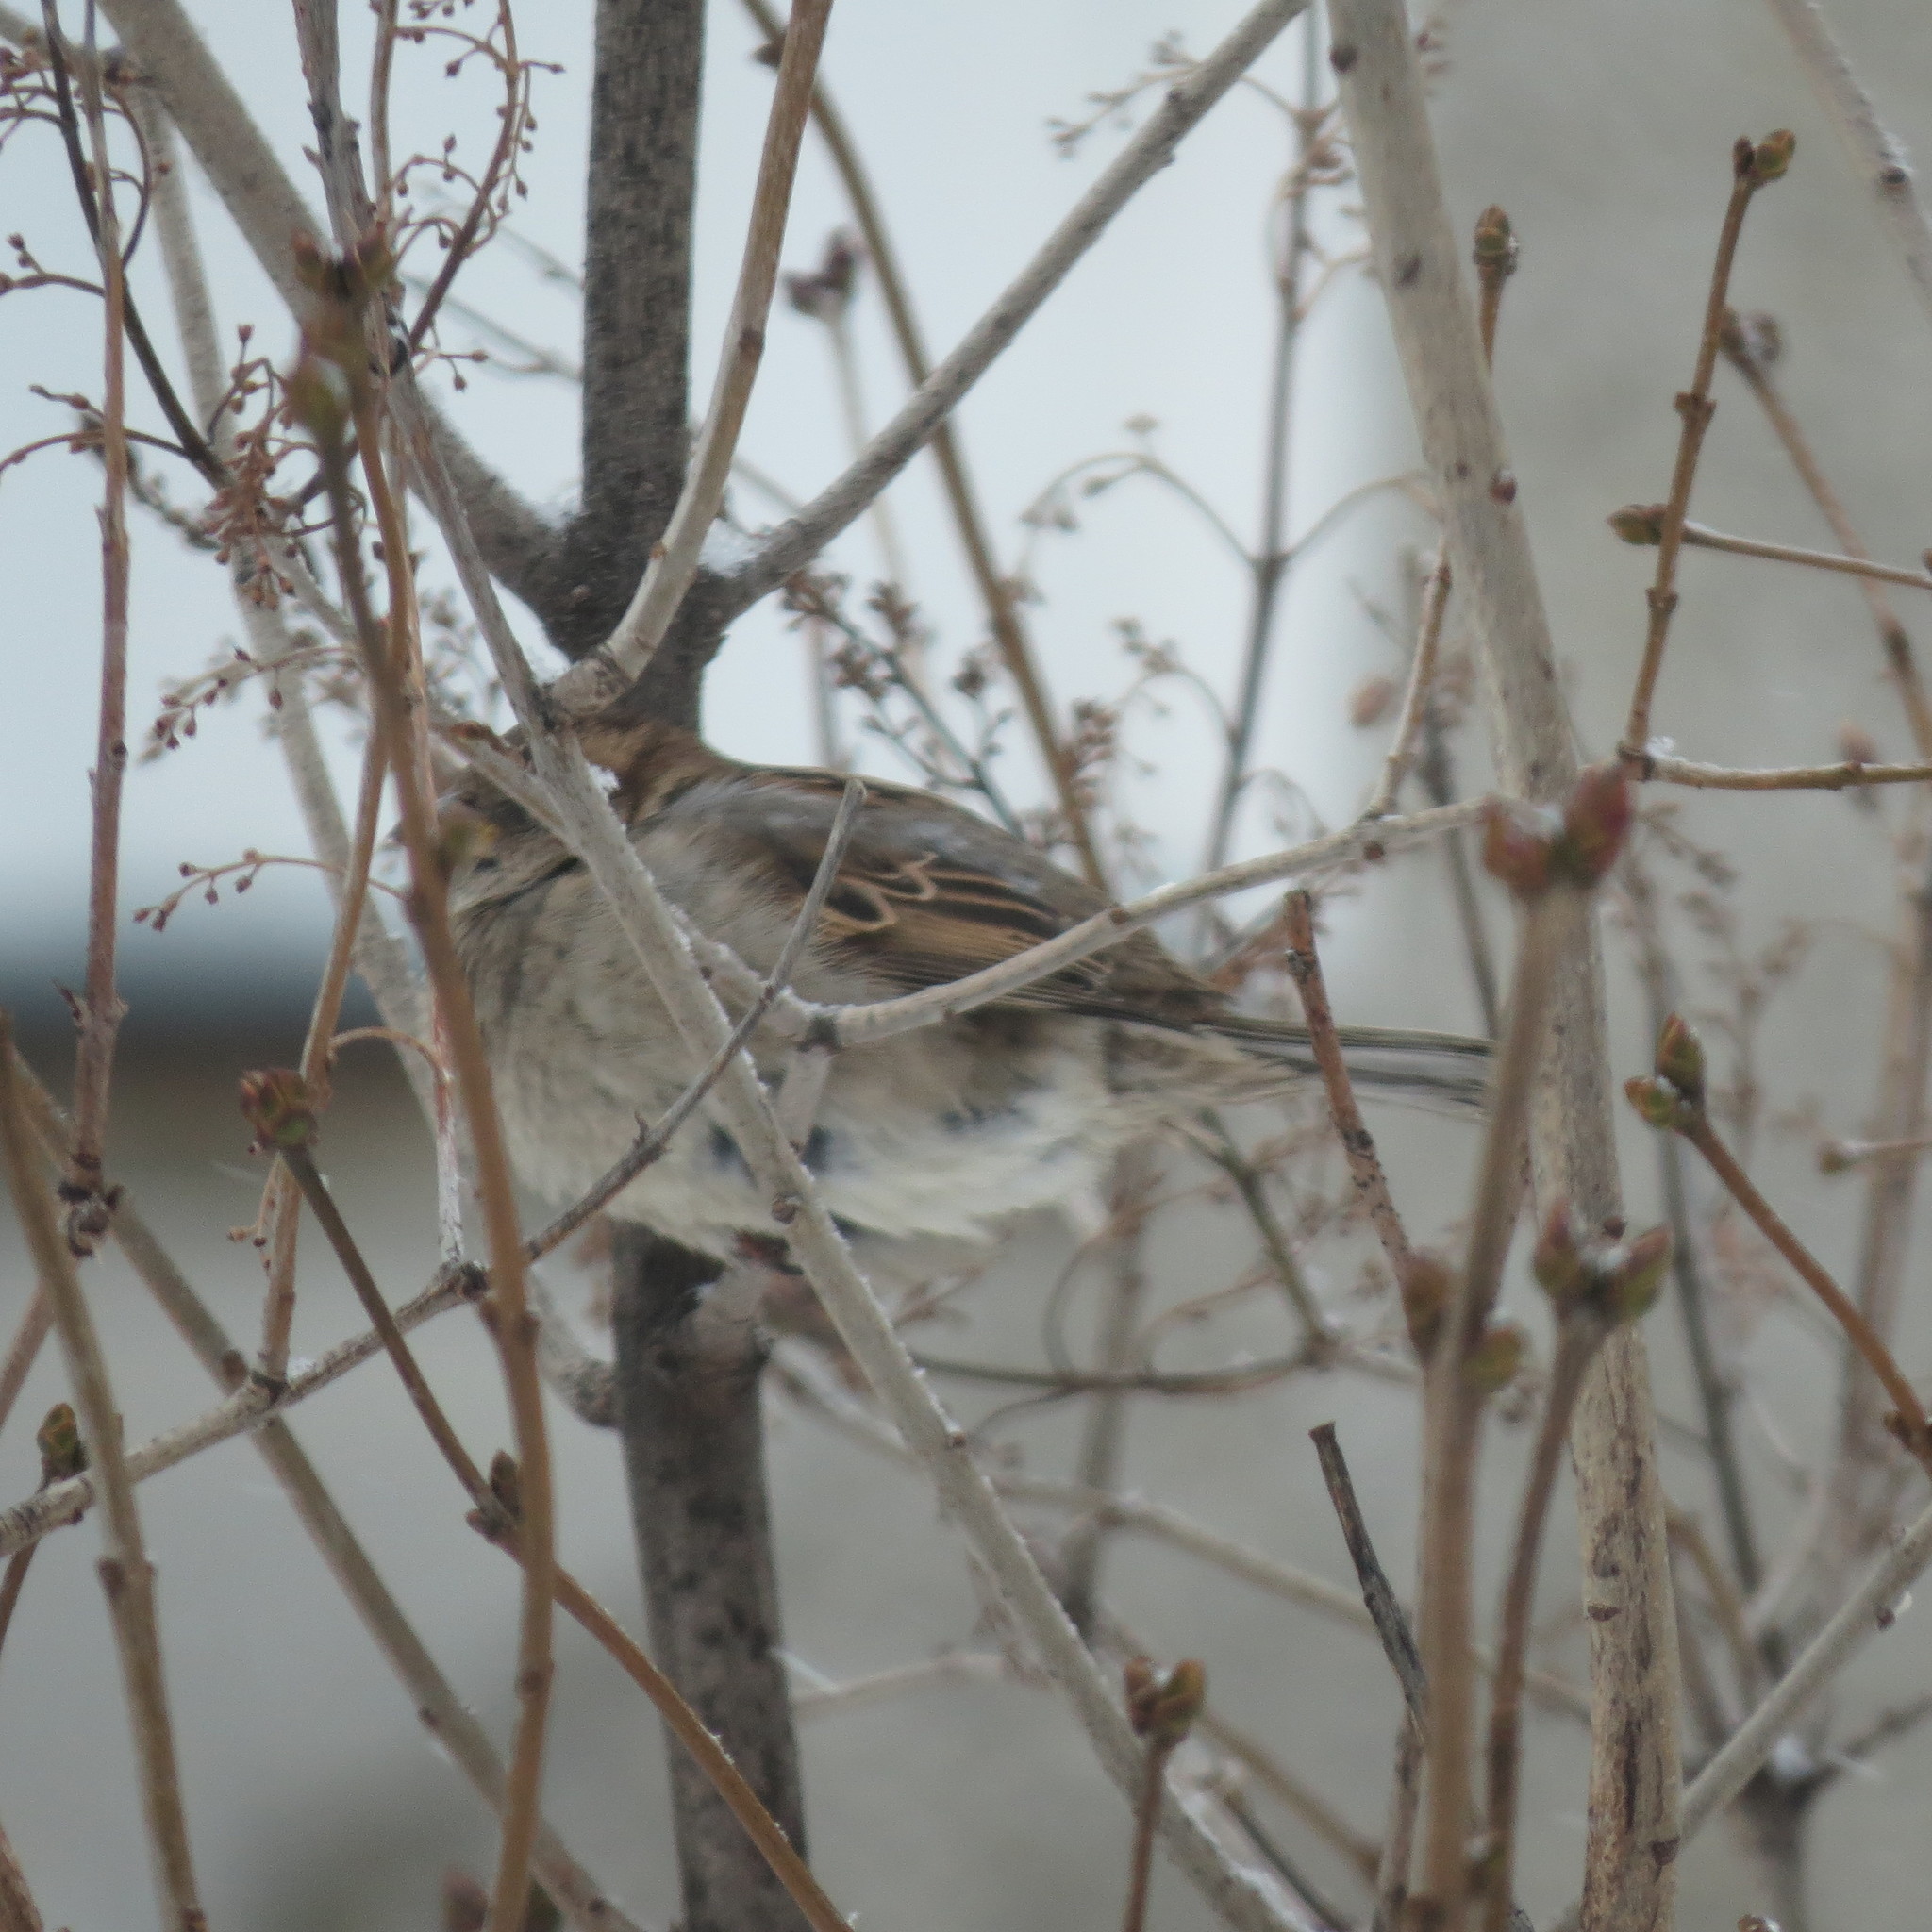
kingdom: Animalia
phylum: Chordata
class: Aves
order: Passeriformes
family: Passeridae
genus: Passer
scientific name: Passer domesticus
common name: House sparrow
